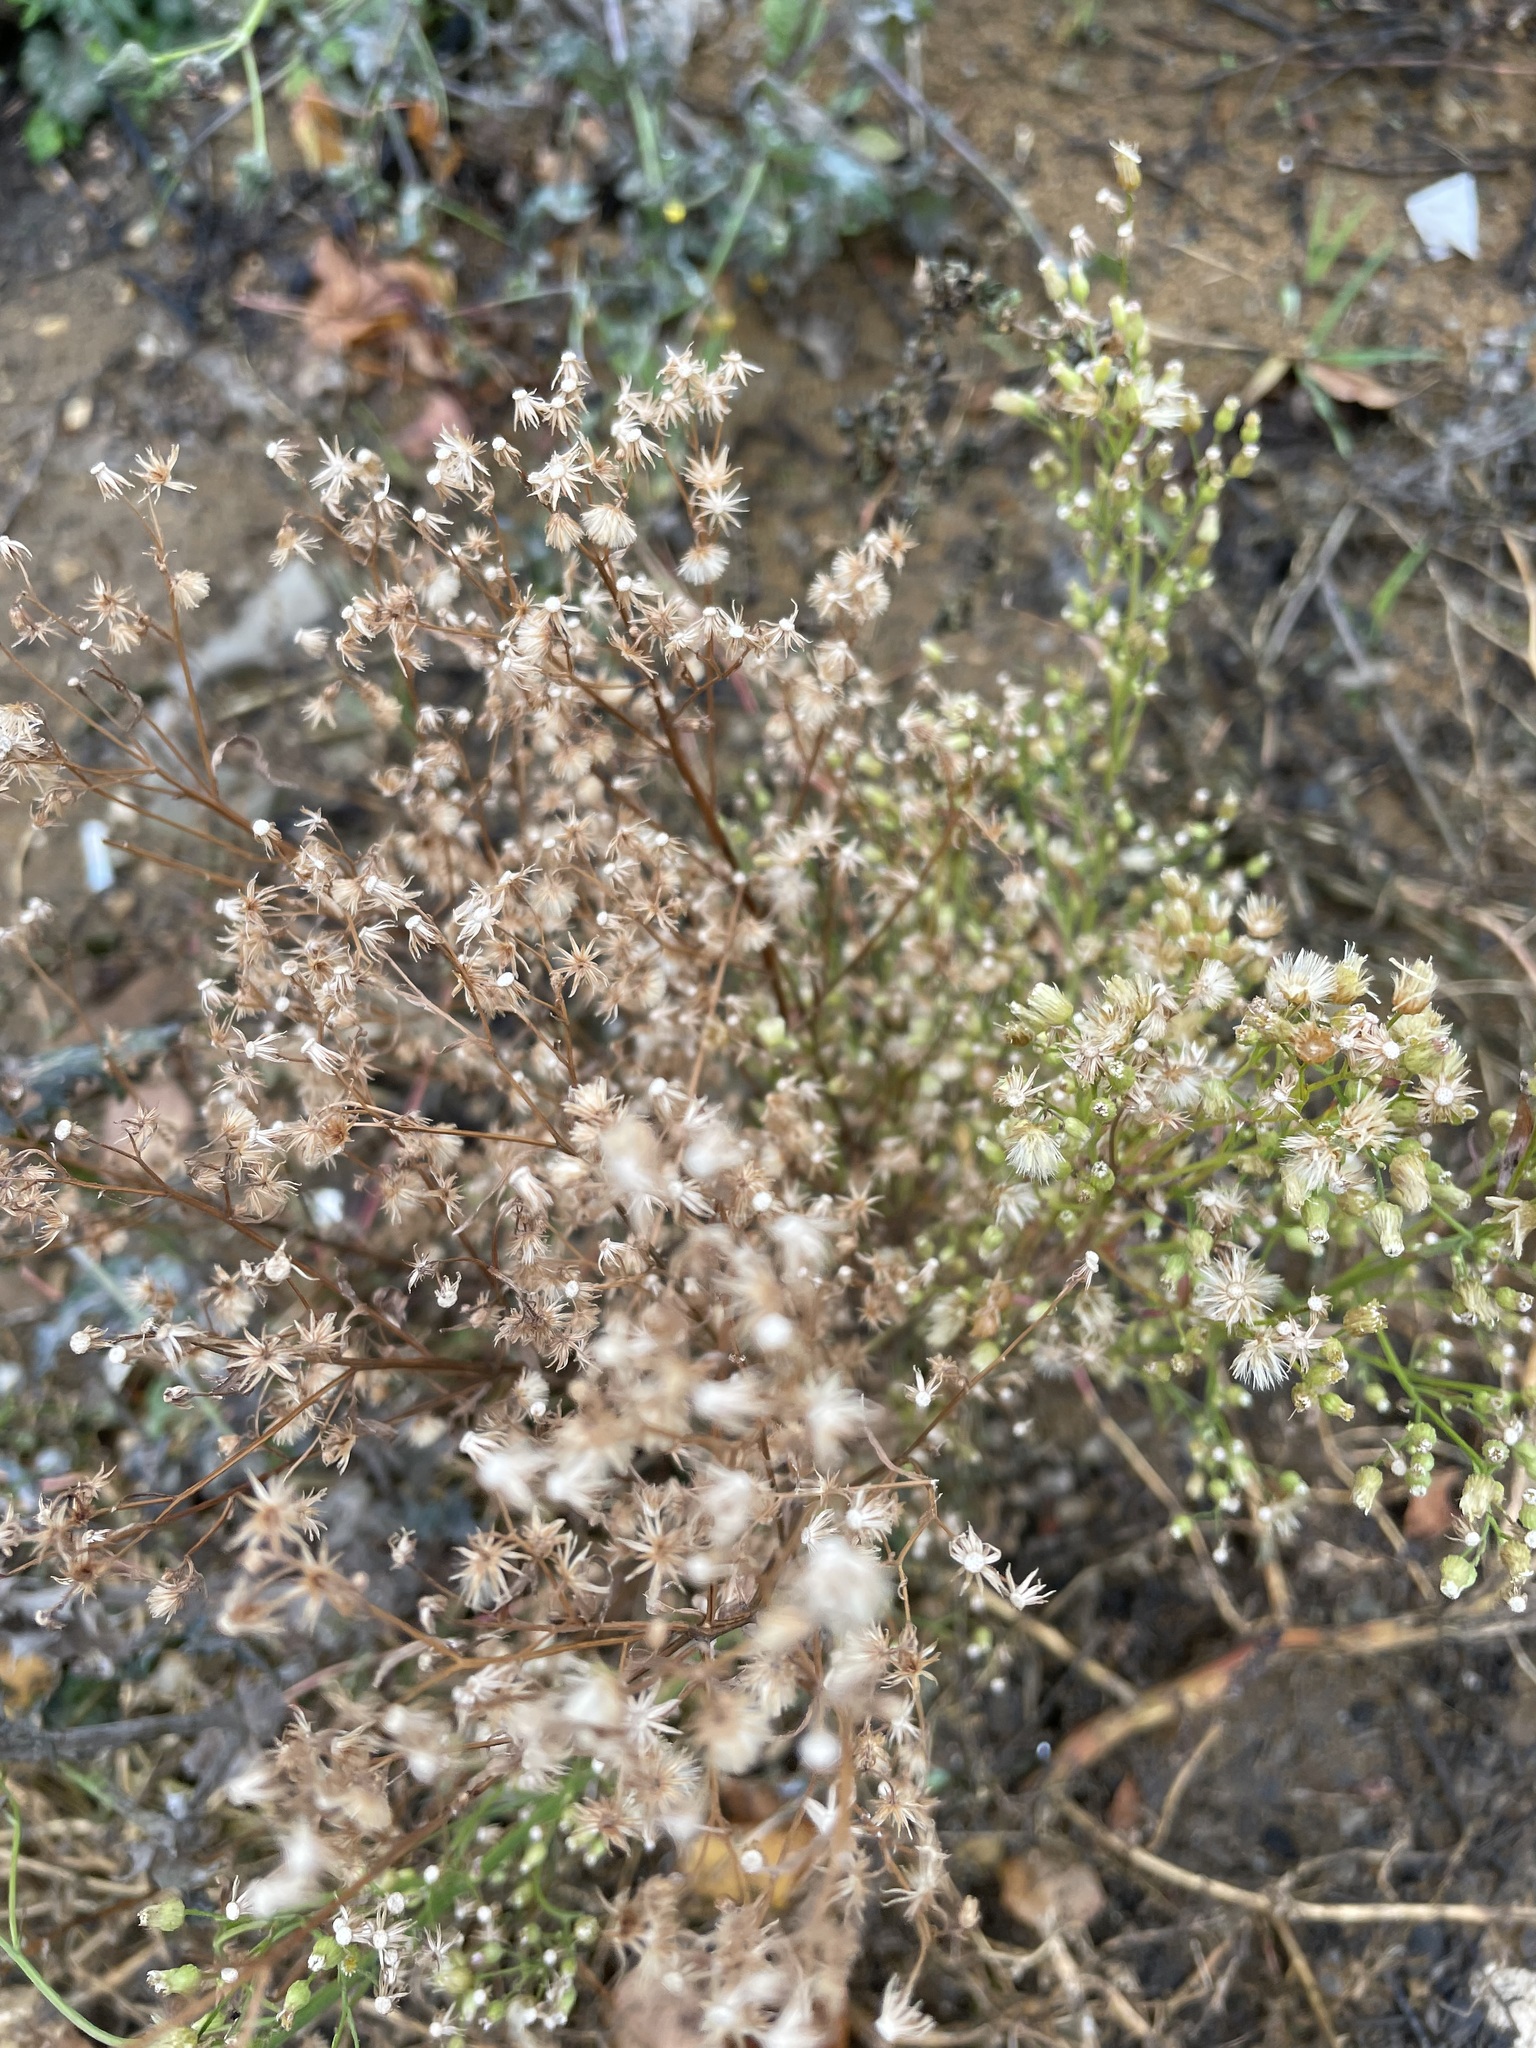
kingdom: Plantae
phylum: Tracheophyta
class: Magnoliopsida
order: Asterales
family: Asteraceae
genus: Erigeron
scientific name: Erigeron canadensis
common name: Canadian fleabane
